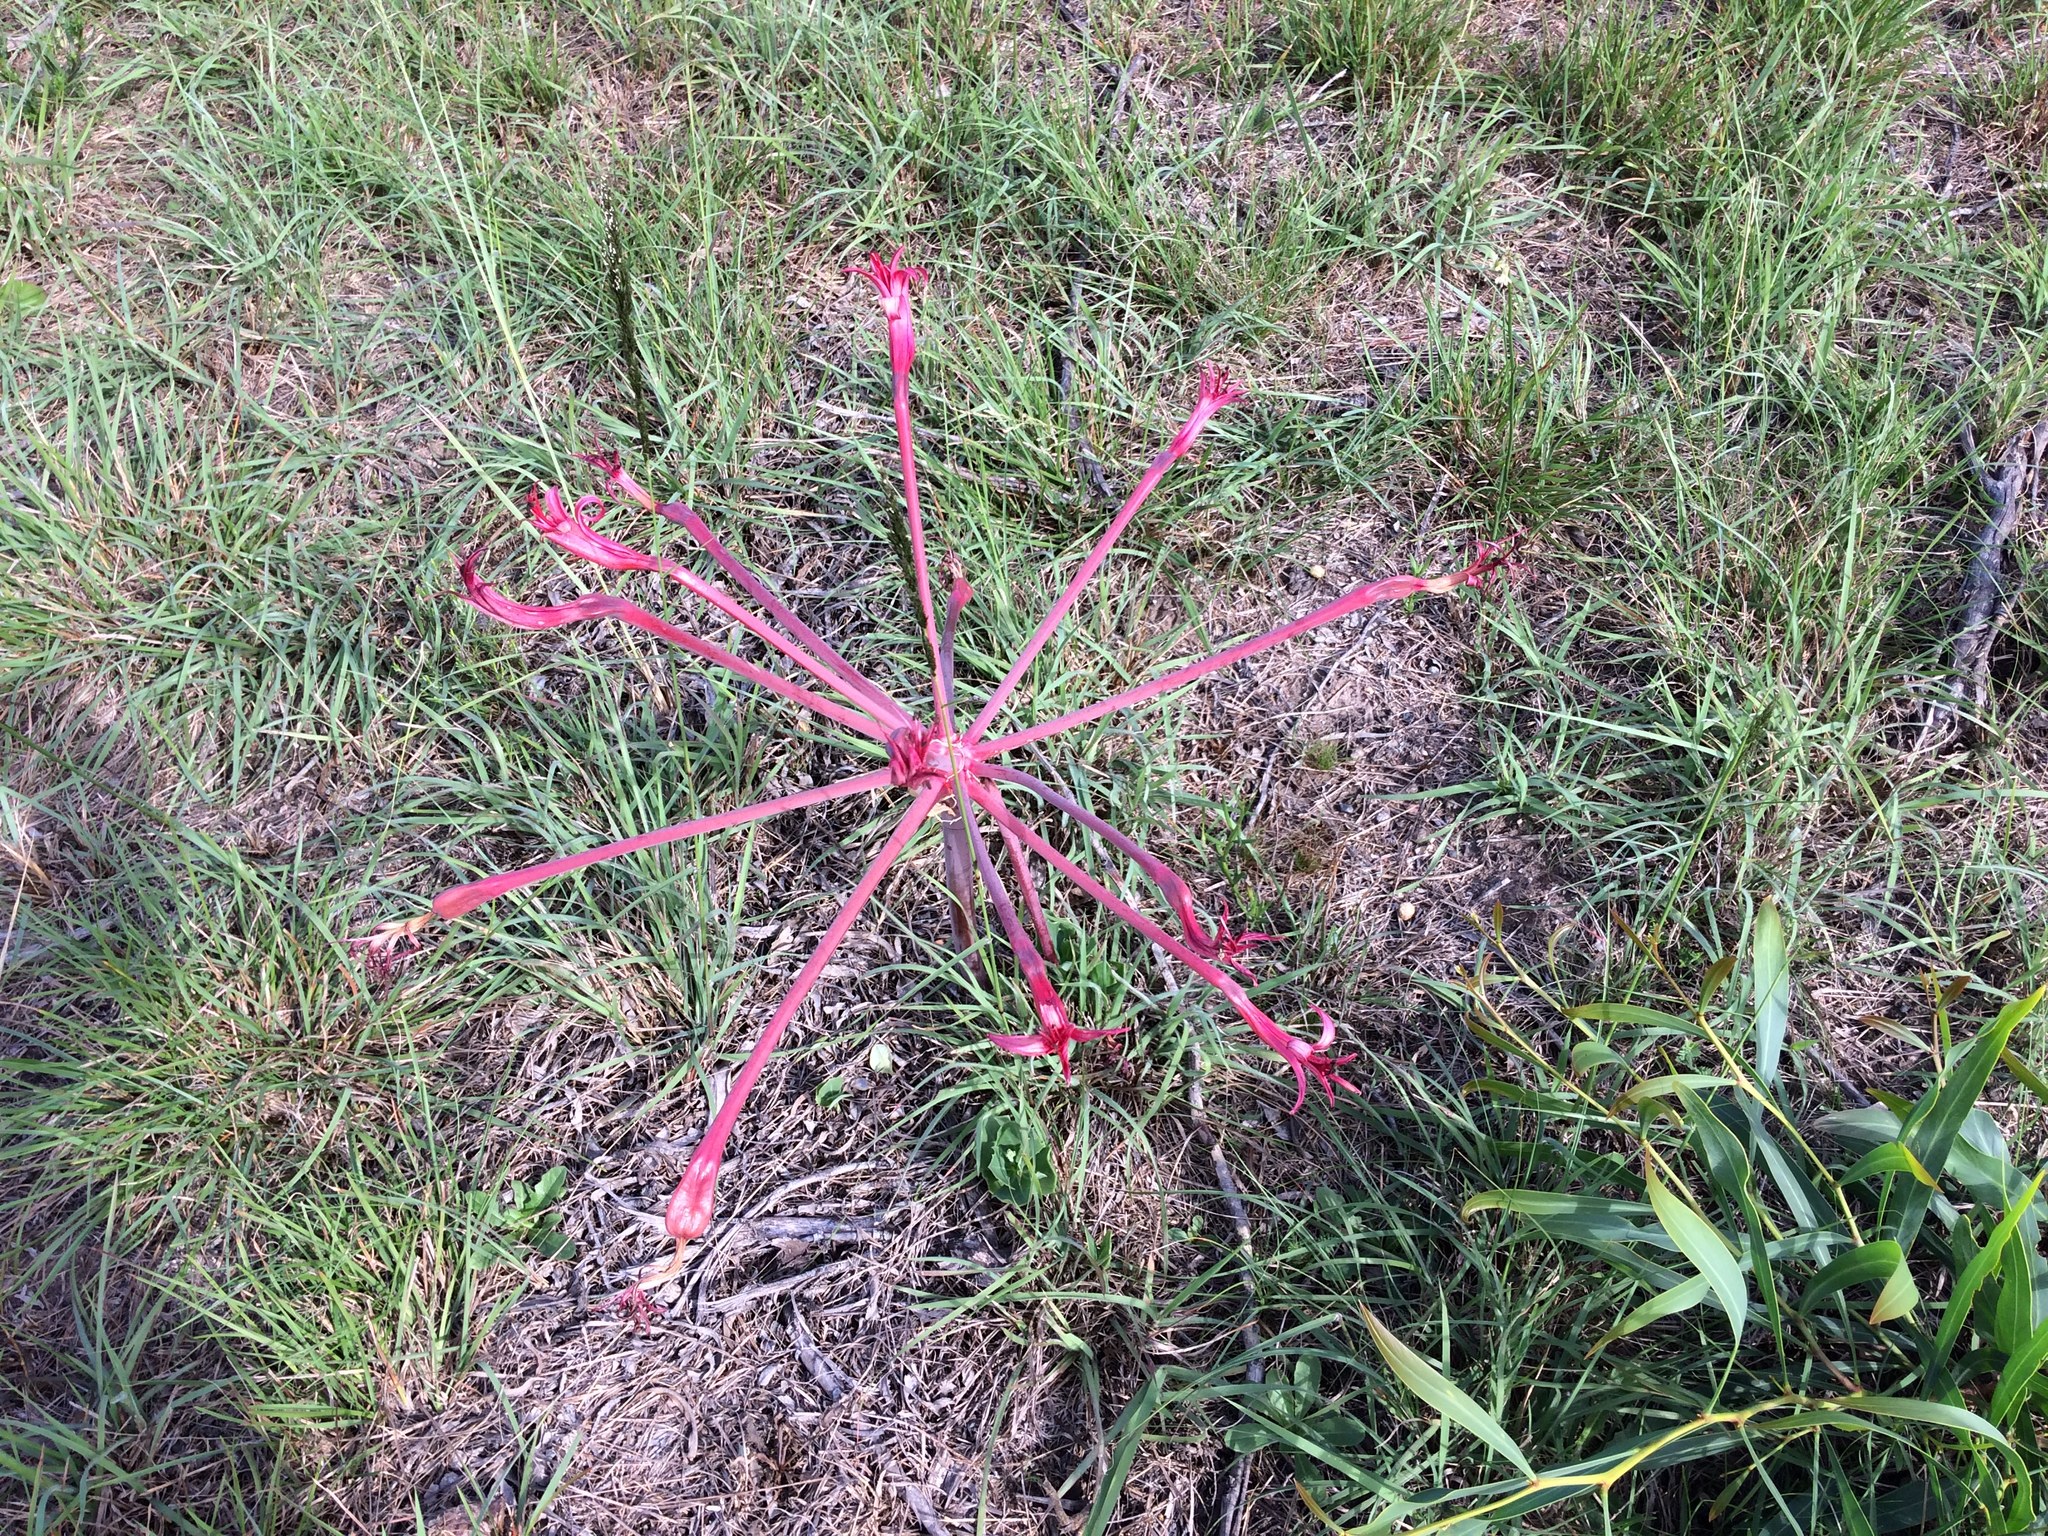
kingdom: Plantae
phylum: Tracheophyta
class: Liliopsida
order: Asparagales
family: Amaryllidaceae
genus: Brunsvigia
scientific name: Brunsvigia litoralis
